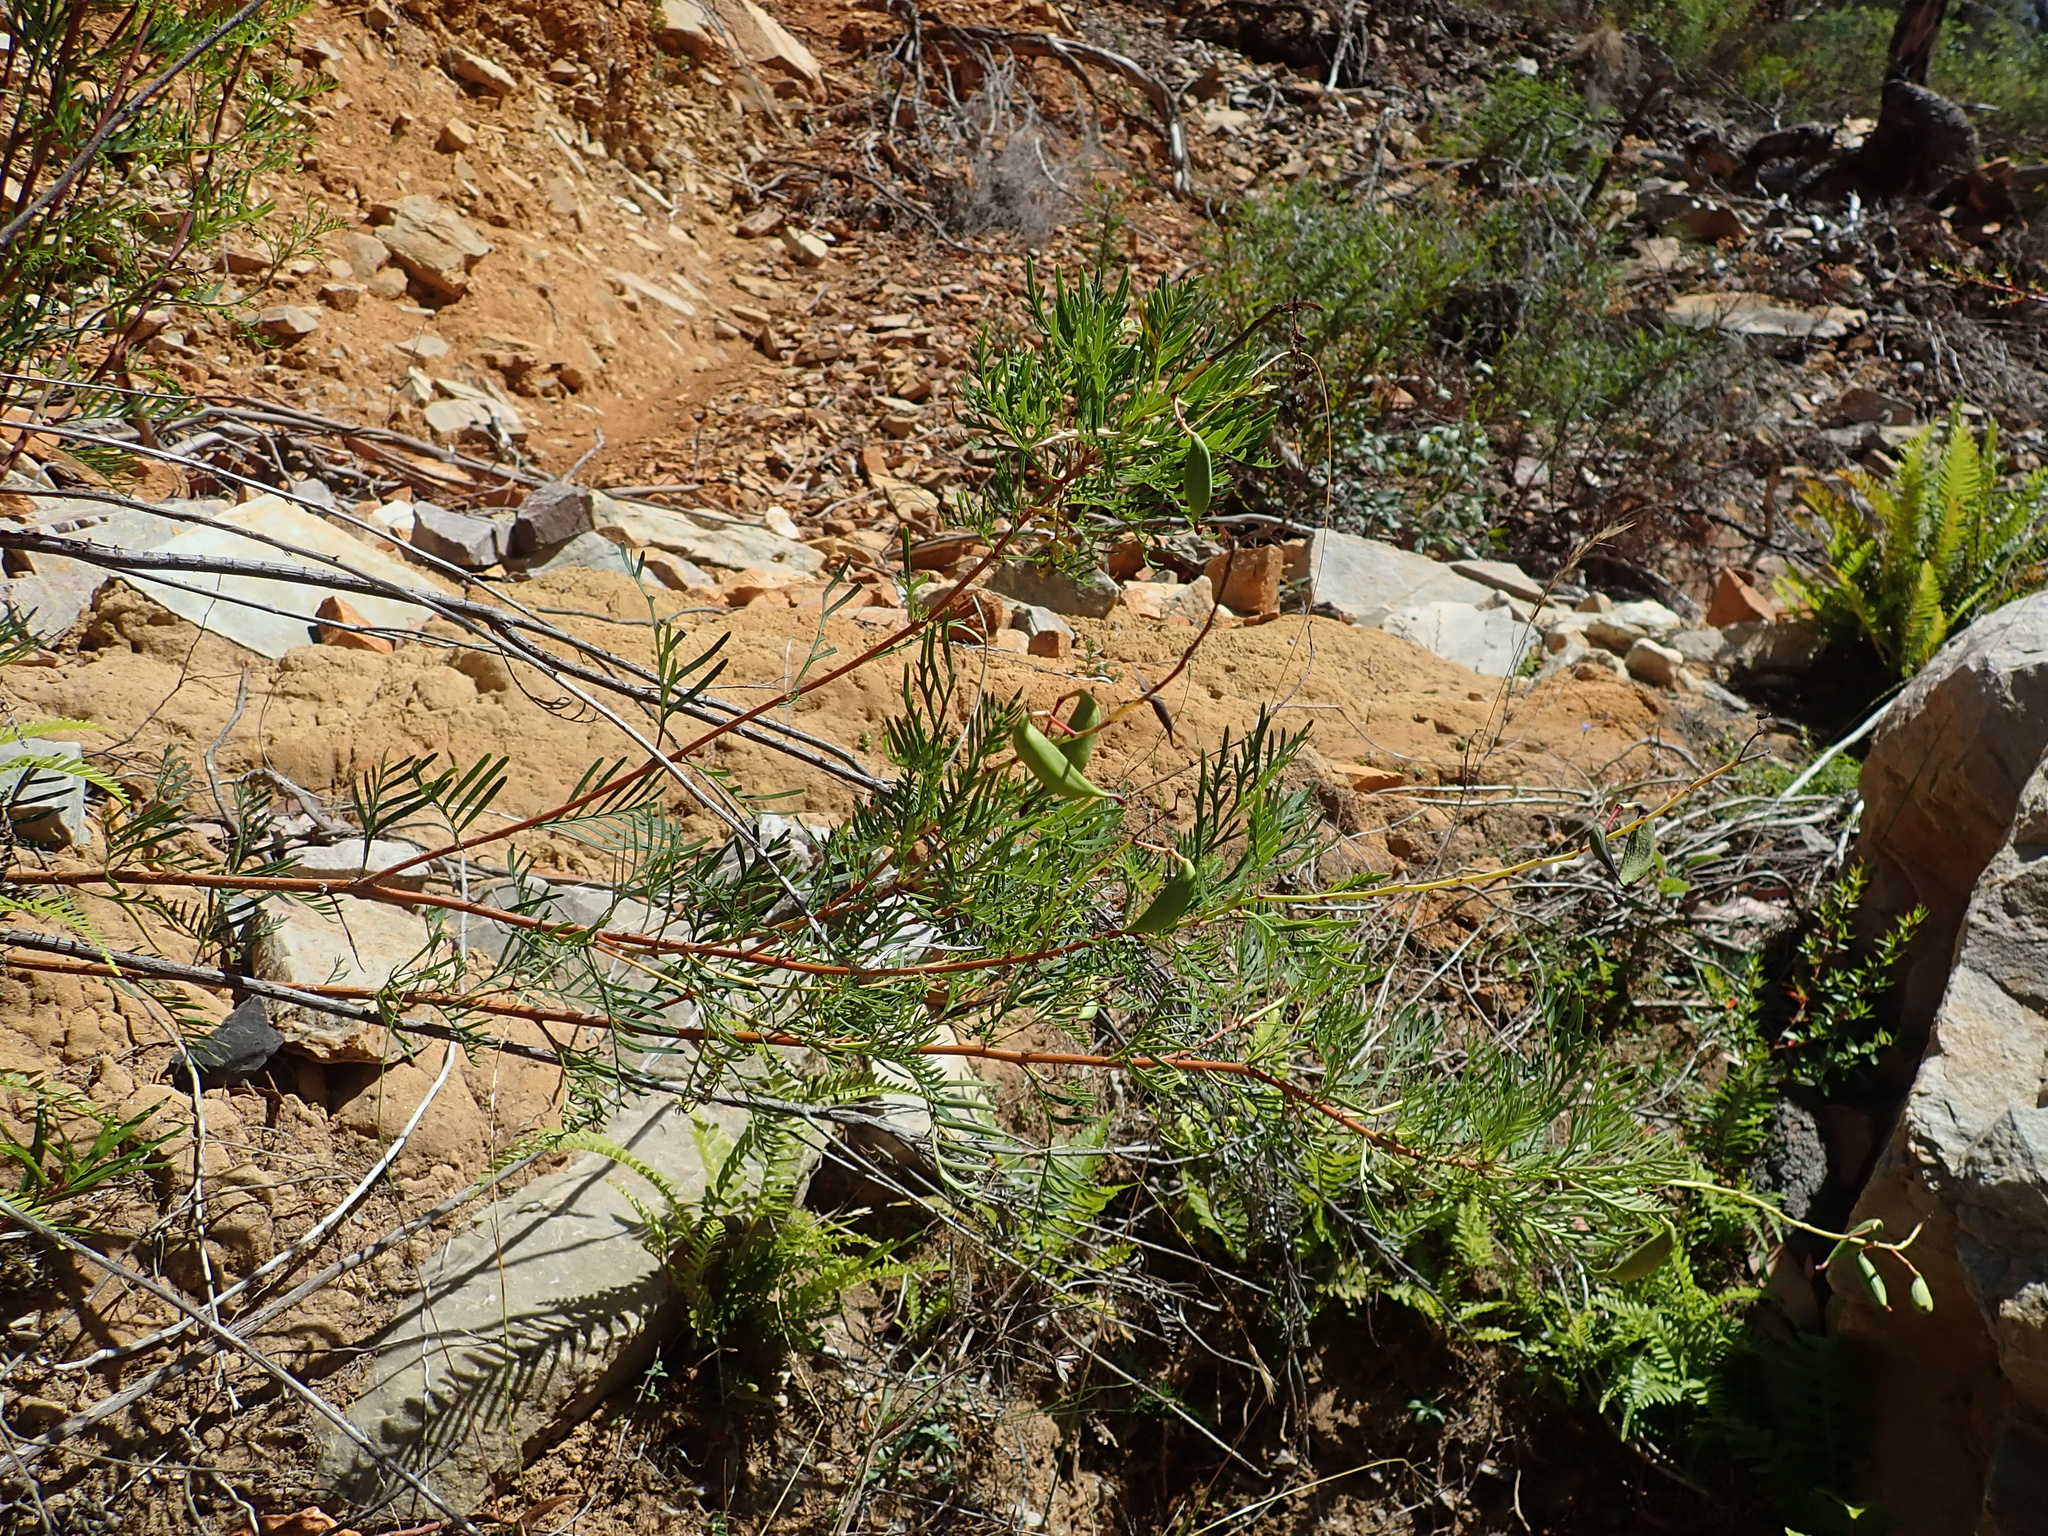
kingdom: Plantae
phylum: Tracheophyta
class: Magnoliopsida
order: Proteales
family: Proteaceae
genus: Lomatia
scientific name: Lomatia tinctoria
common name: Guitar plant
